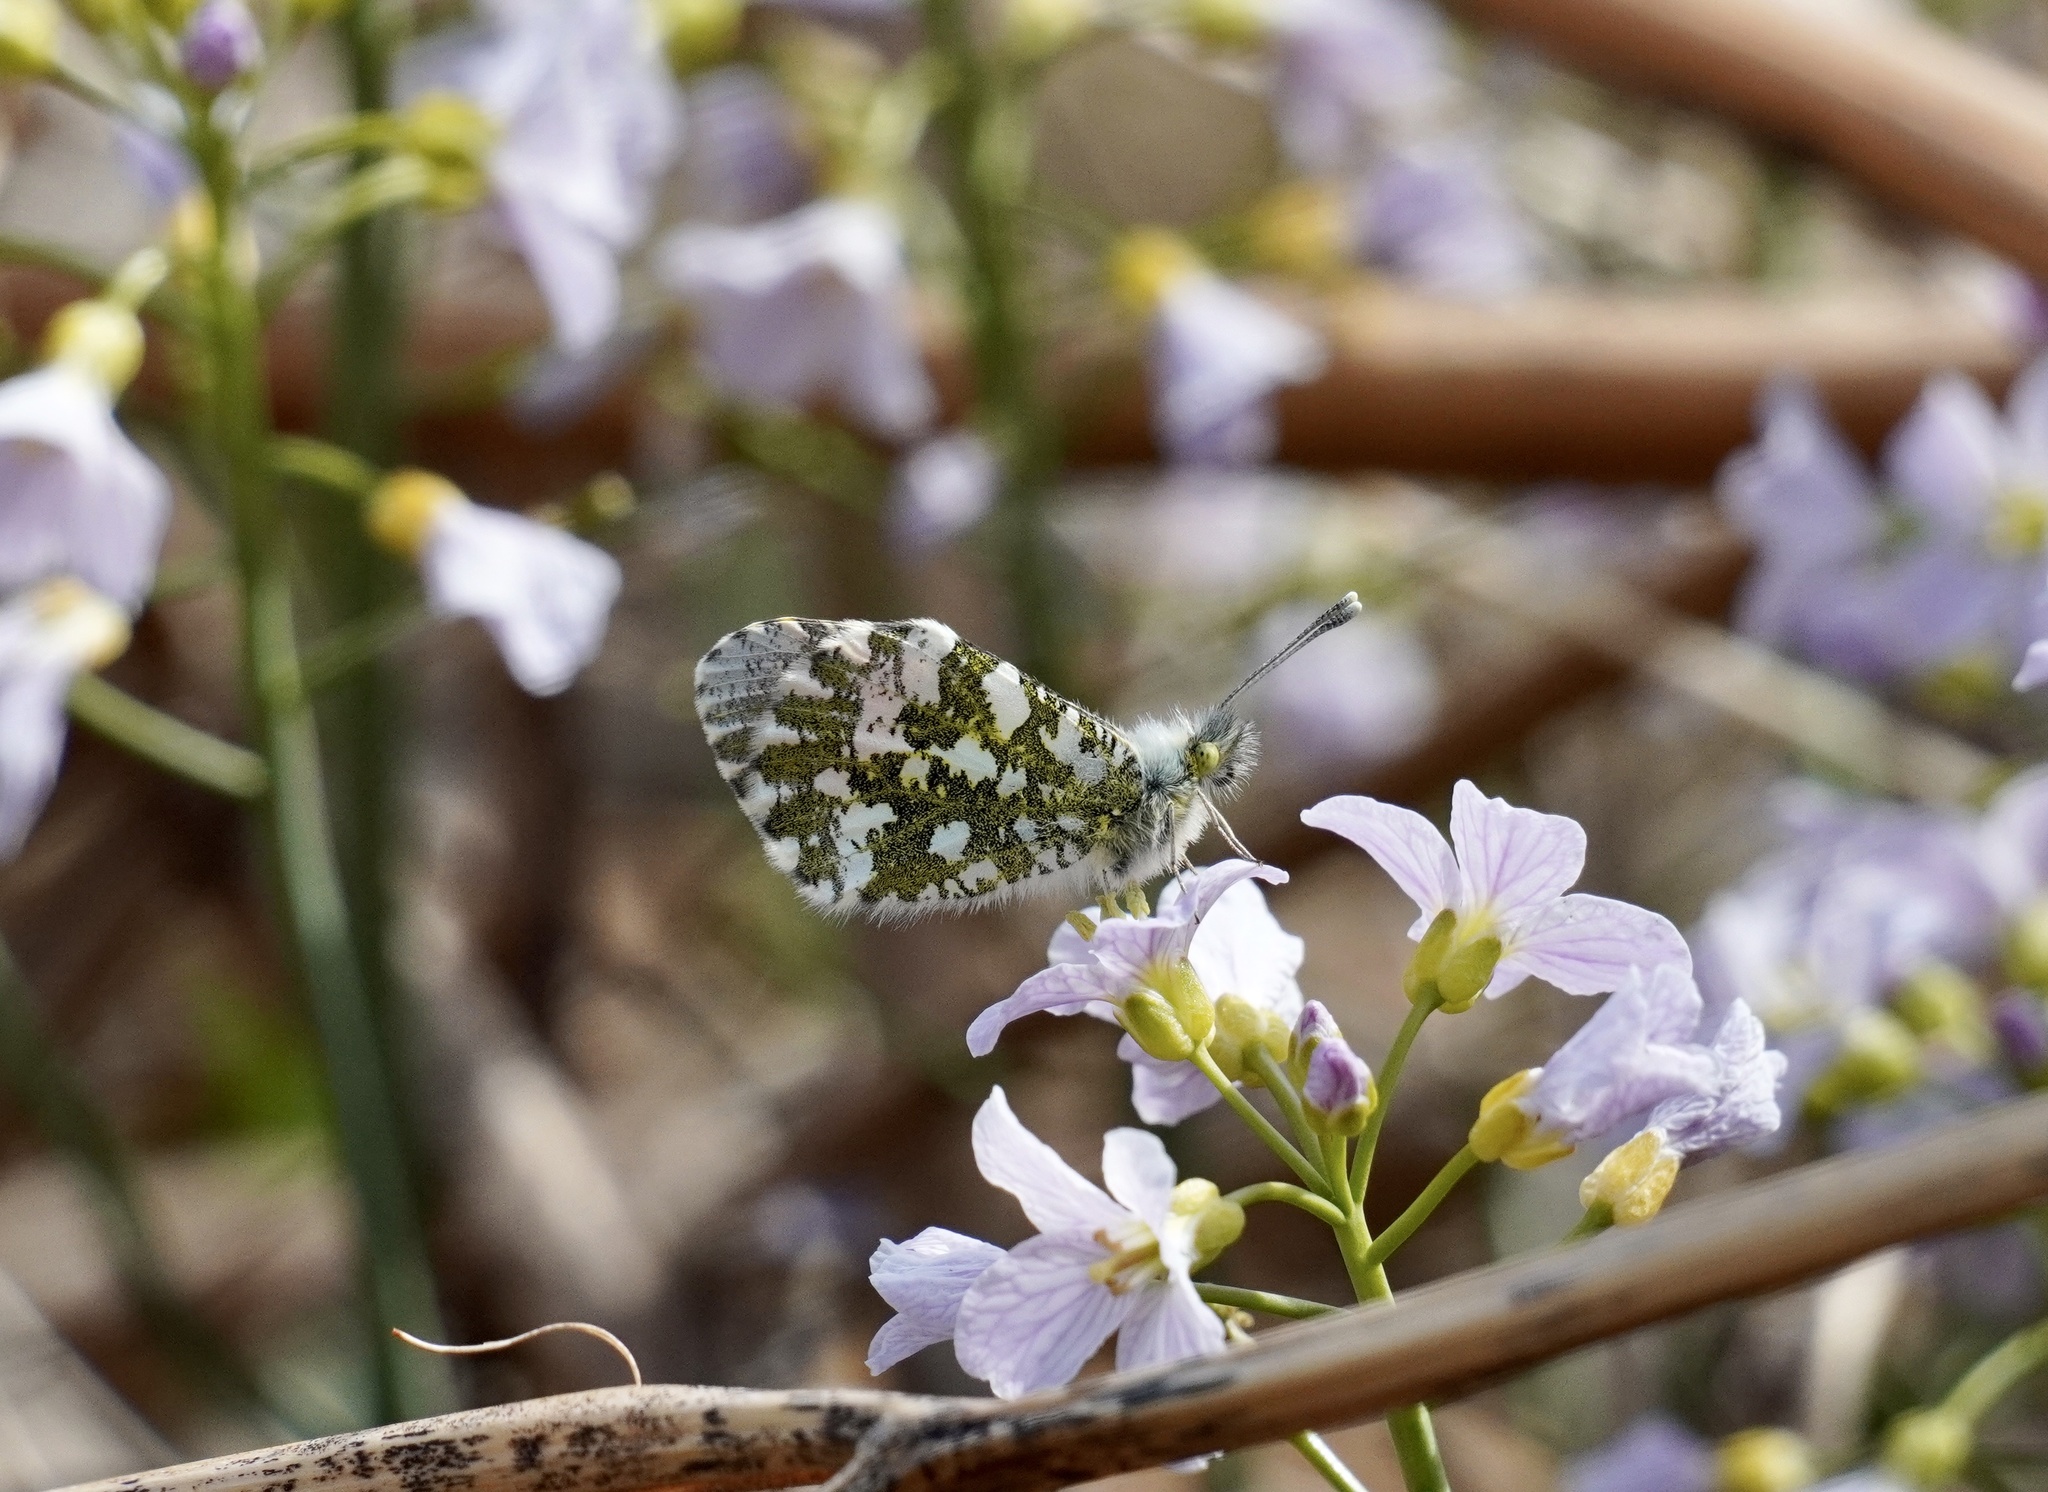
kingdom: Animalia
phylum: Arthropoda
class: Insecta
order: Lepidoptera
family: Pieridae
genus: Anthocharis
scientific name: Anthocharis cardamines
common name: Orange-tip
